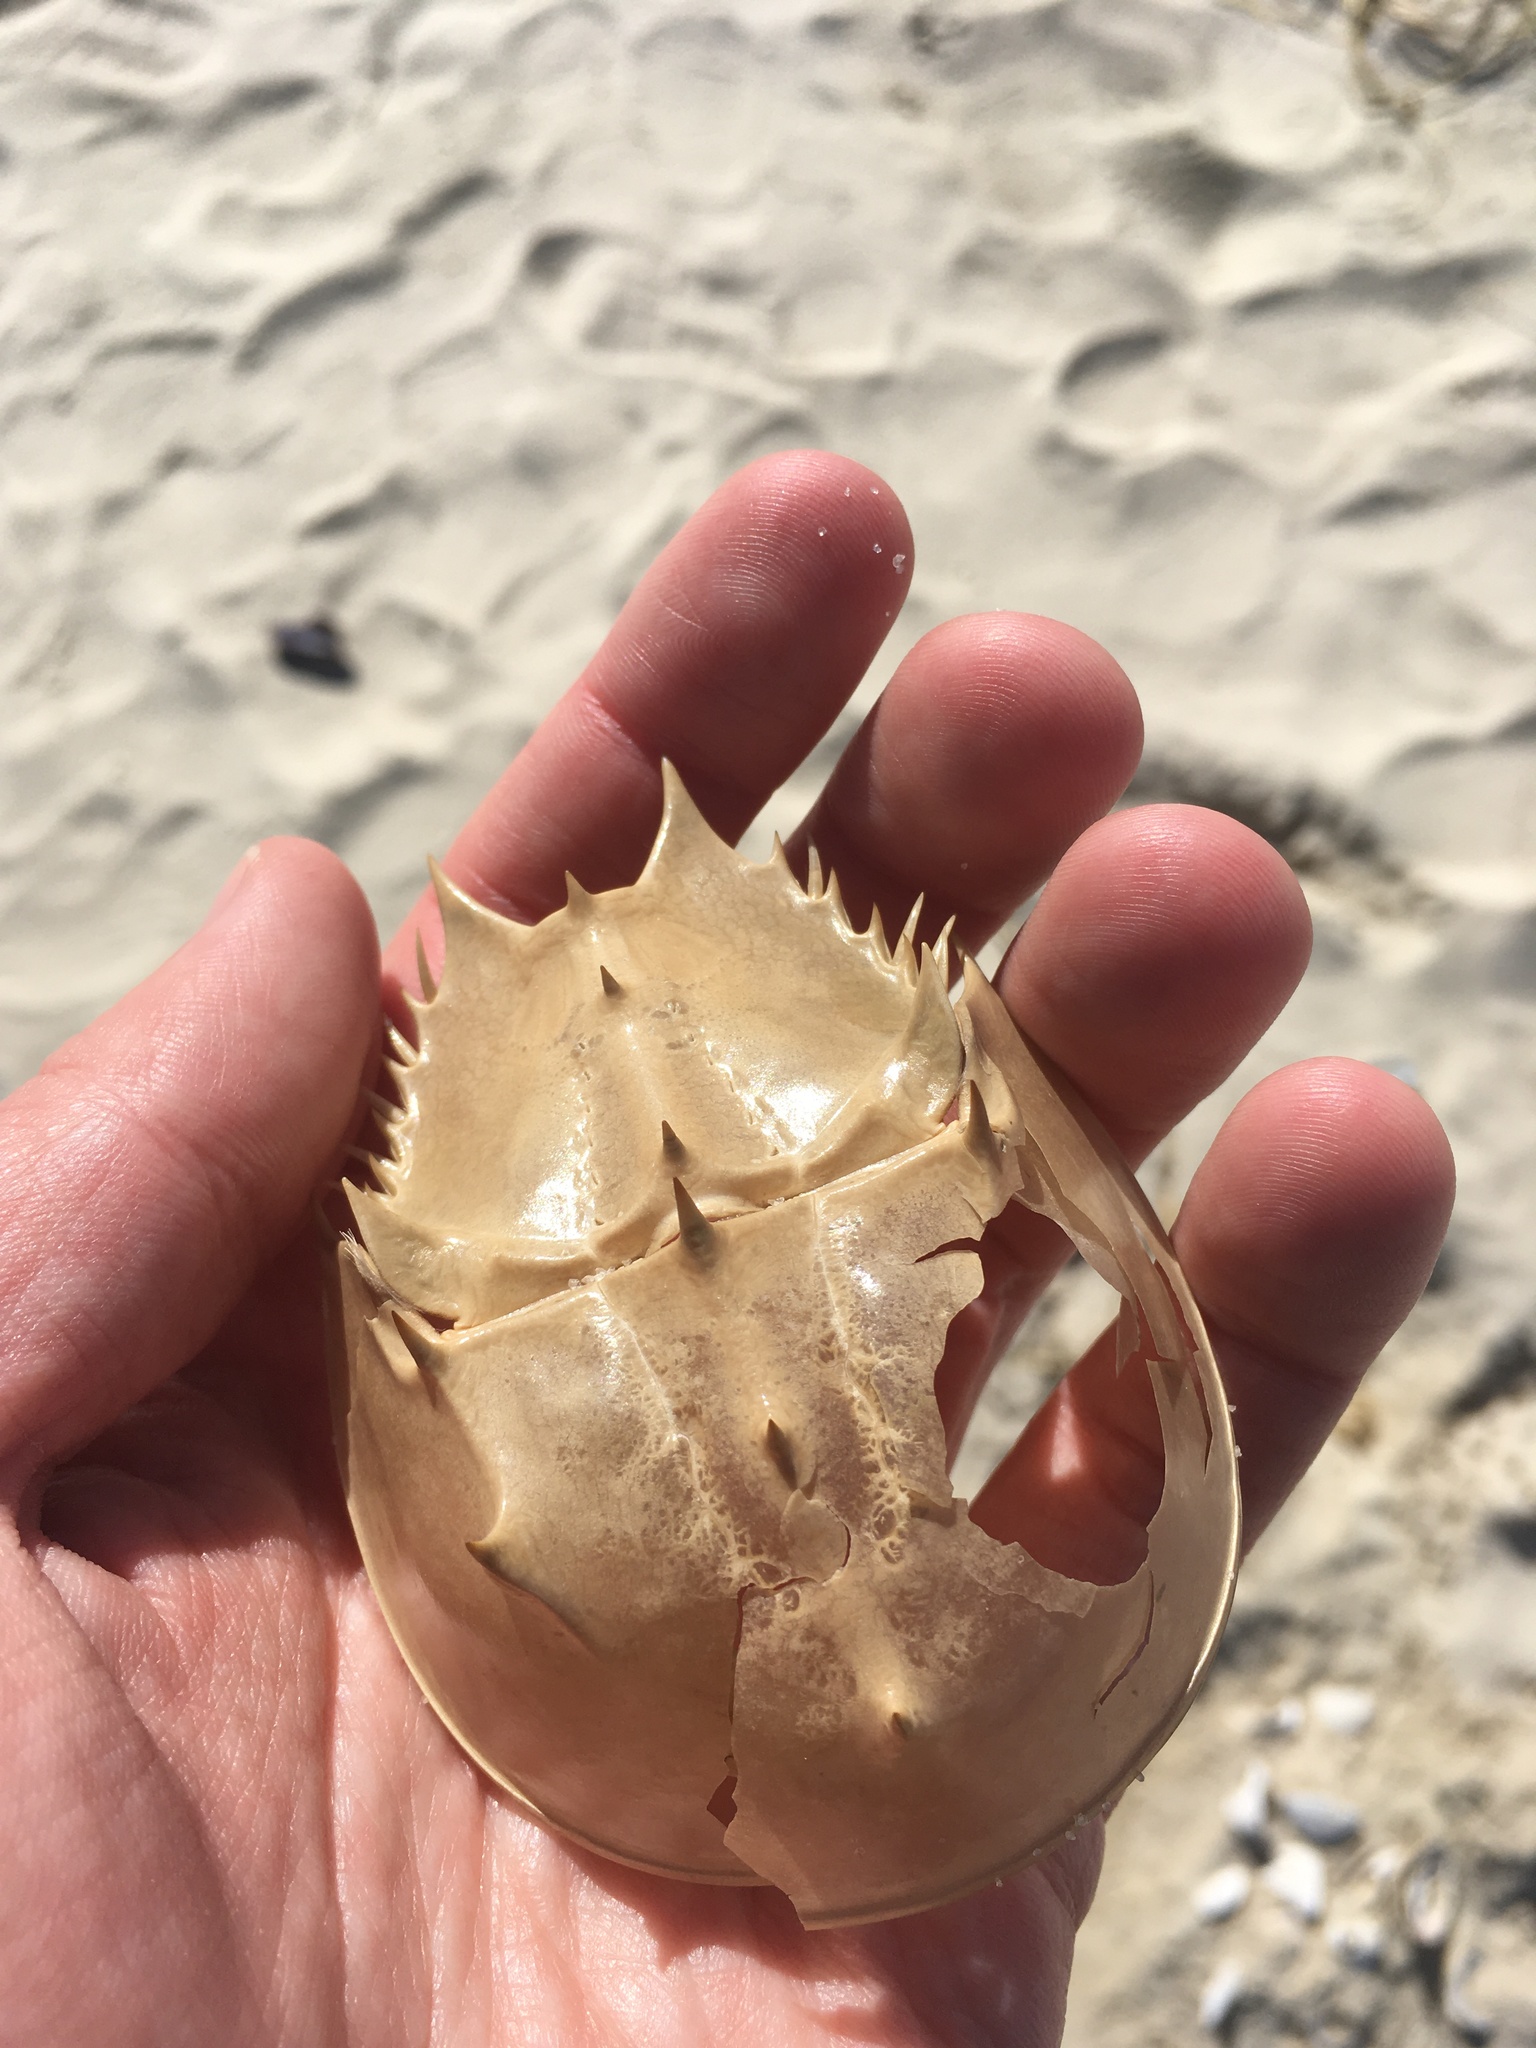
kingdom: Animalia
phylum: Arthropoda
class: Merostomata
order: Xiphosurida
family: Limulidae
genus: Limulus
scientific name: Limulus polyphemus
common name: Horseshoe crab
